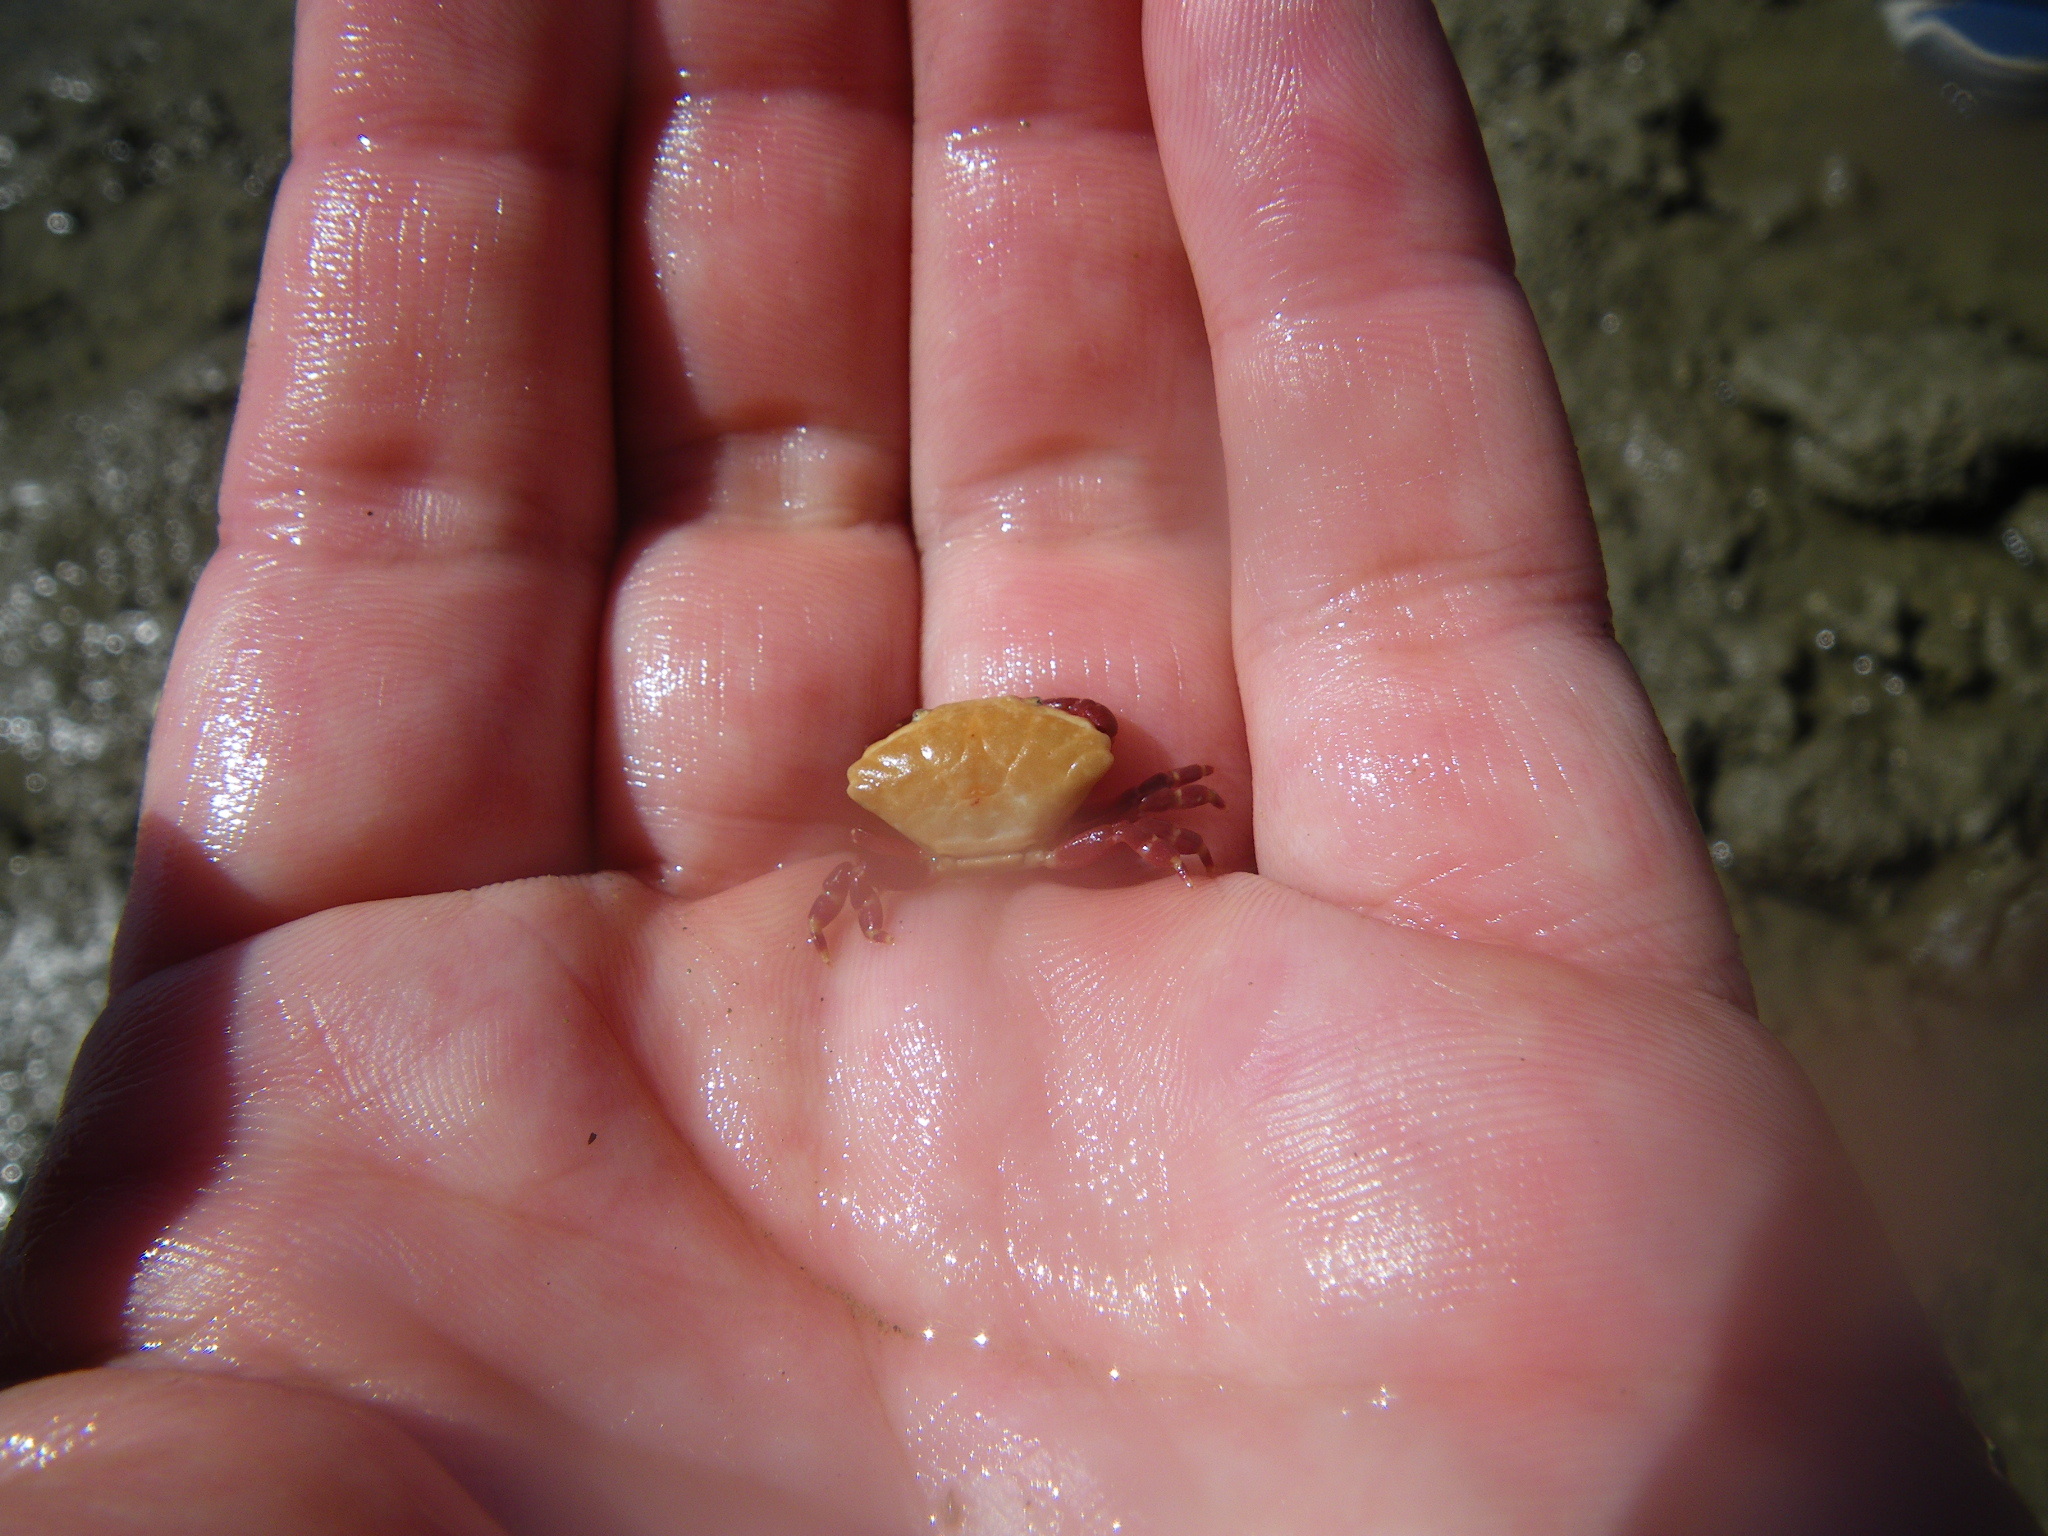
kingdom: Animalia
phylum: Arthropoda
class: Malacostraca
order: Decapoda
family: Xanthidae
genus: Liomera
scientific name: Liomera loevis
